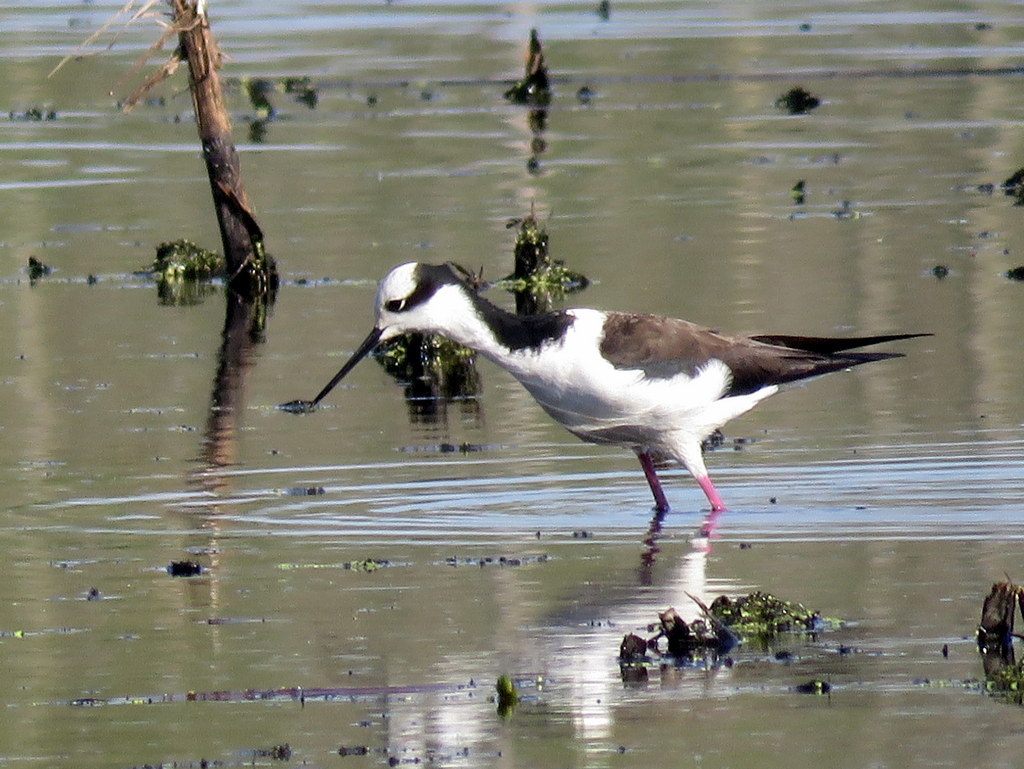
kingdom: Animalia
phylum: Chordata
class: Aves
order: Charadriiformes
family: Recurvirostridae
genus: Himantopus
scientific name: Himantopus mexicanus
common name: Black-necked stilt
